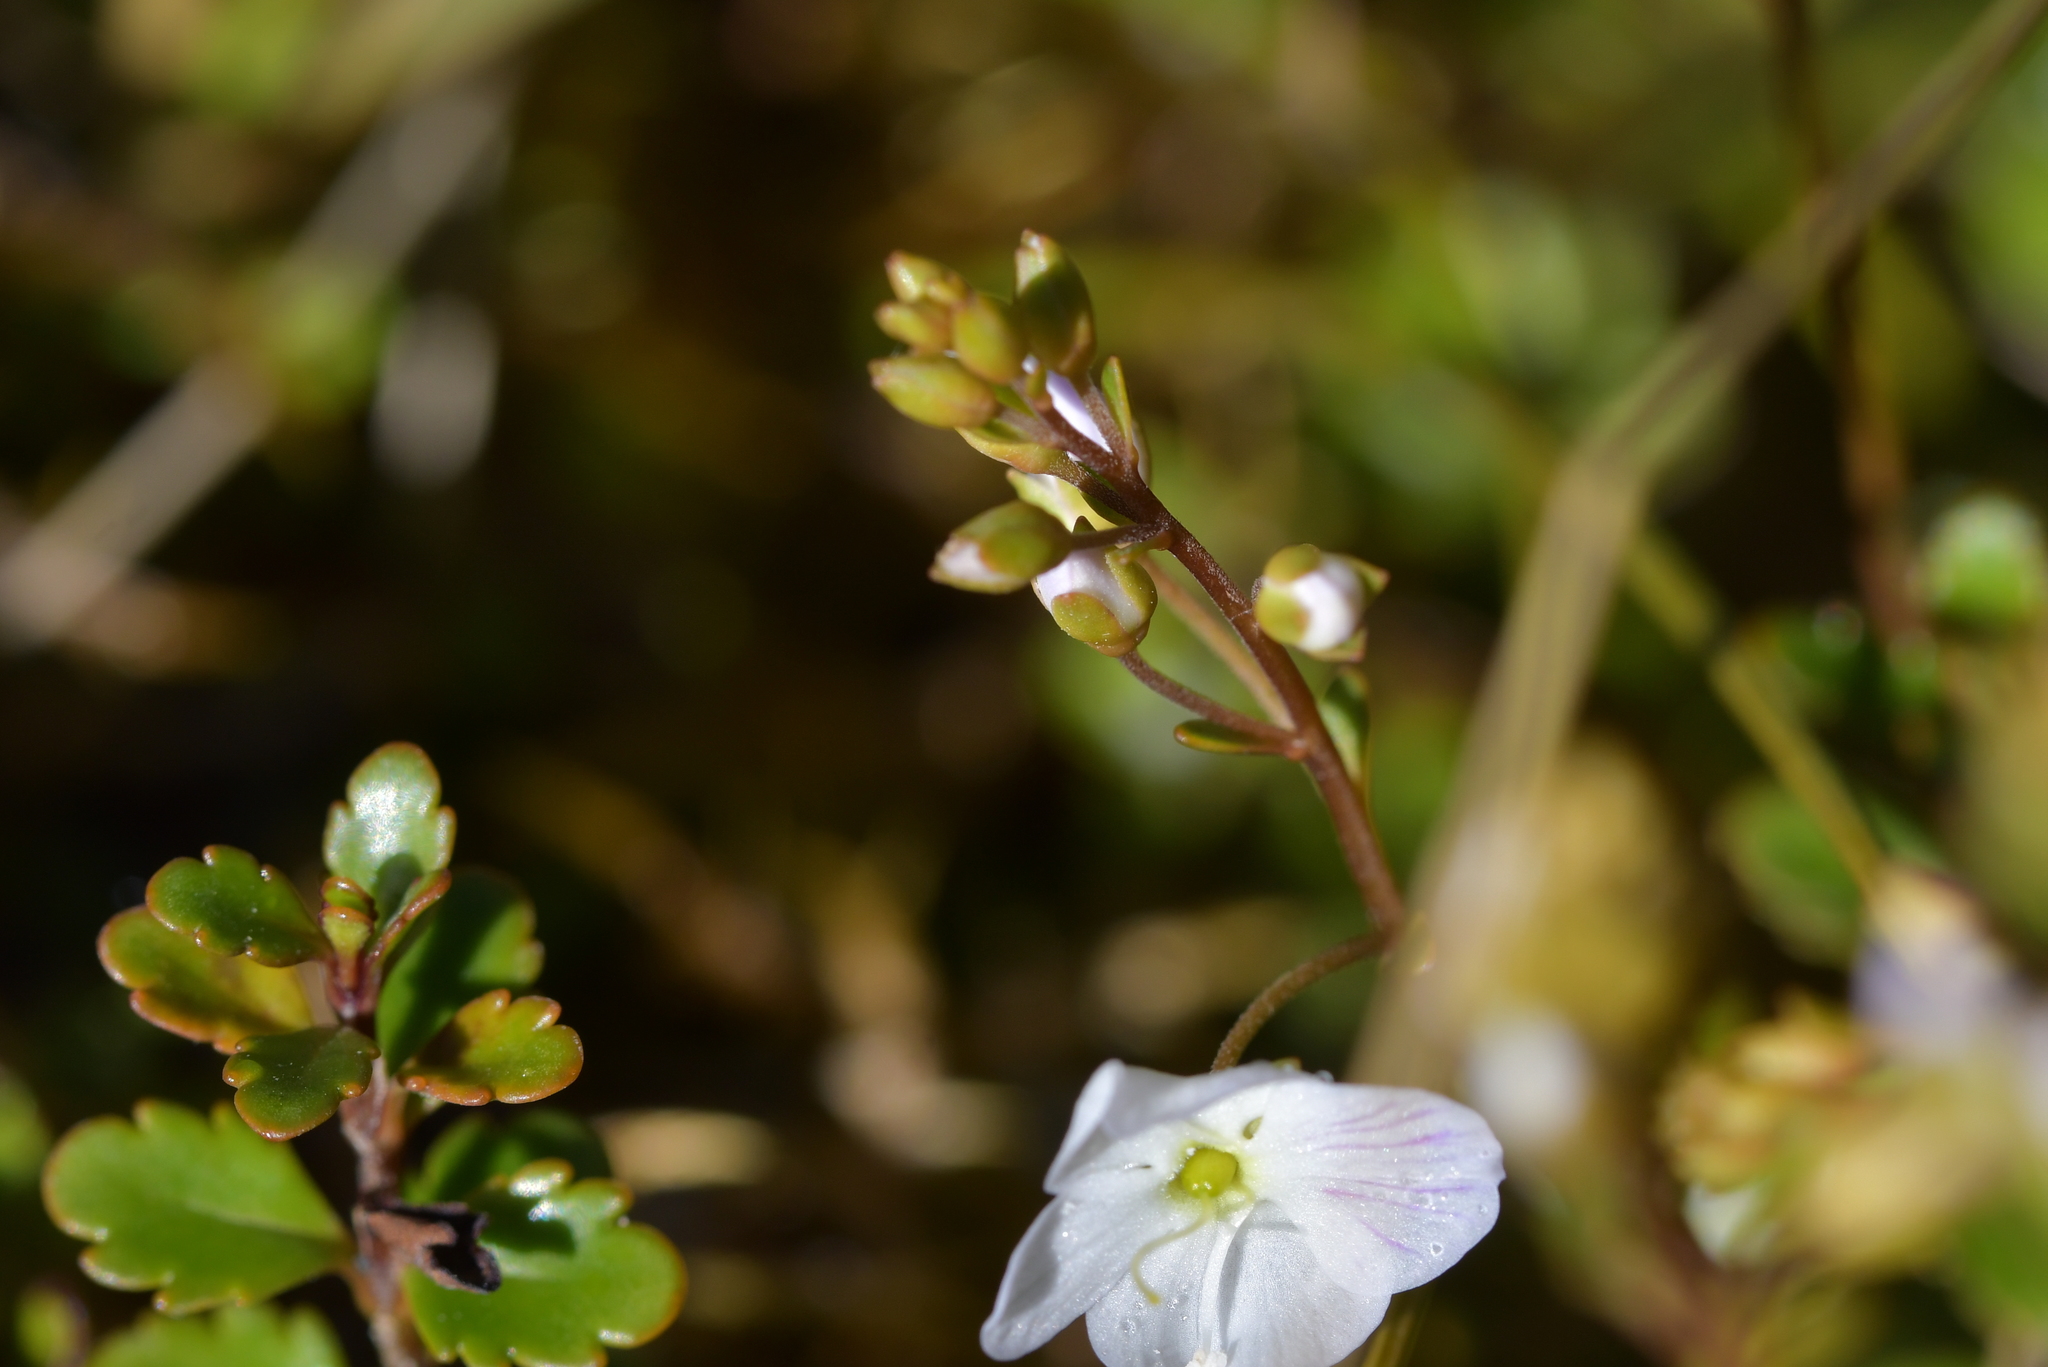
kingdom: Plantae
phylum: Tracheophyta
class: Magnoliopsida
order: Lamiales
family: Plantaginaceae
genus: Veronica
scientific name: Veronica lyallii
